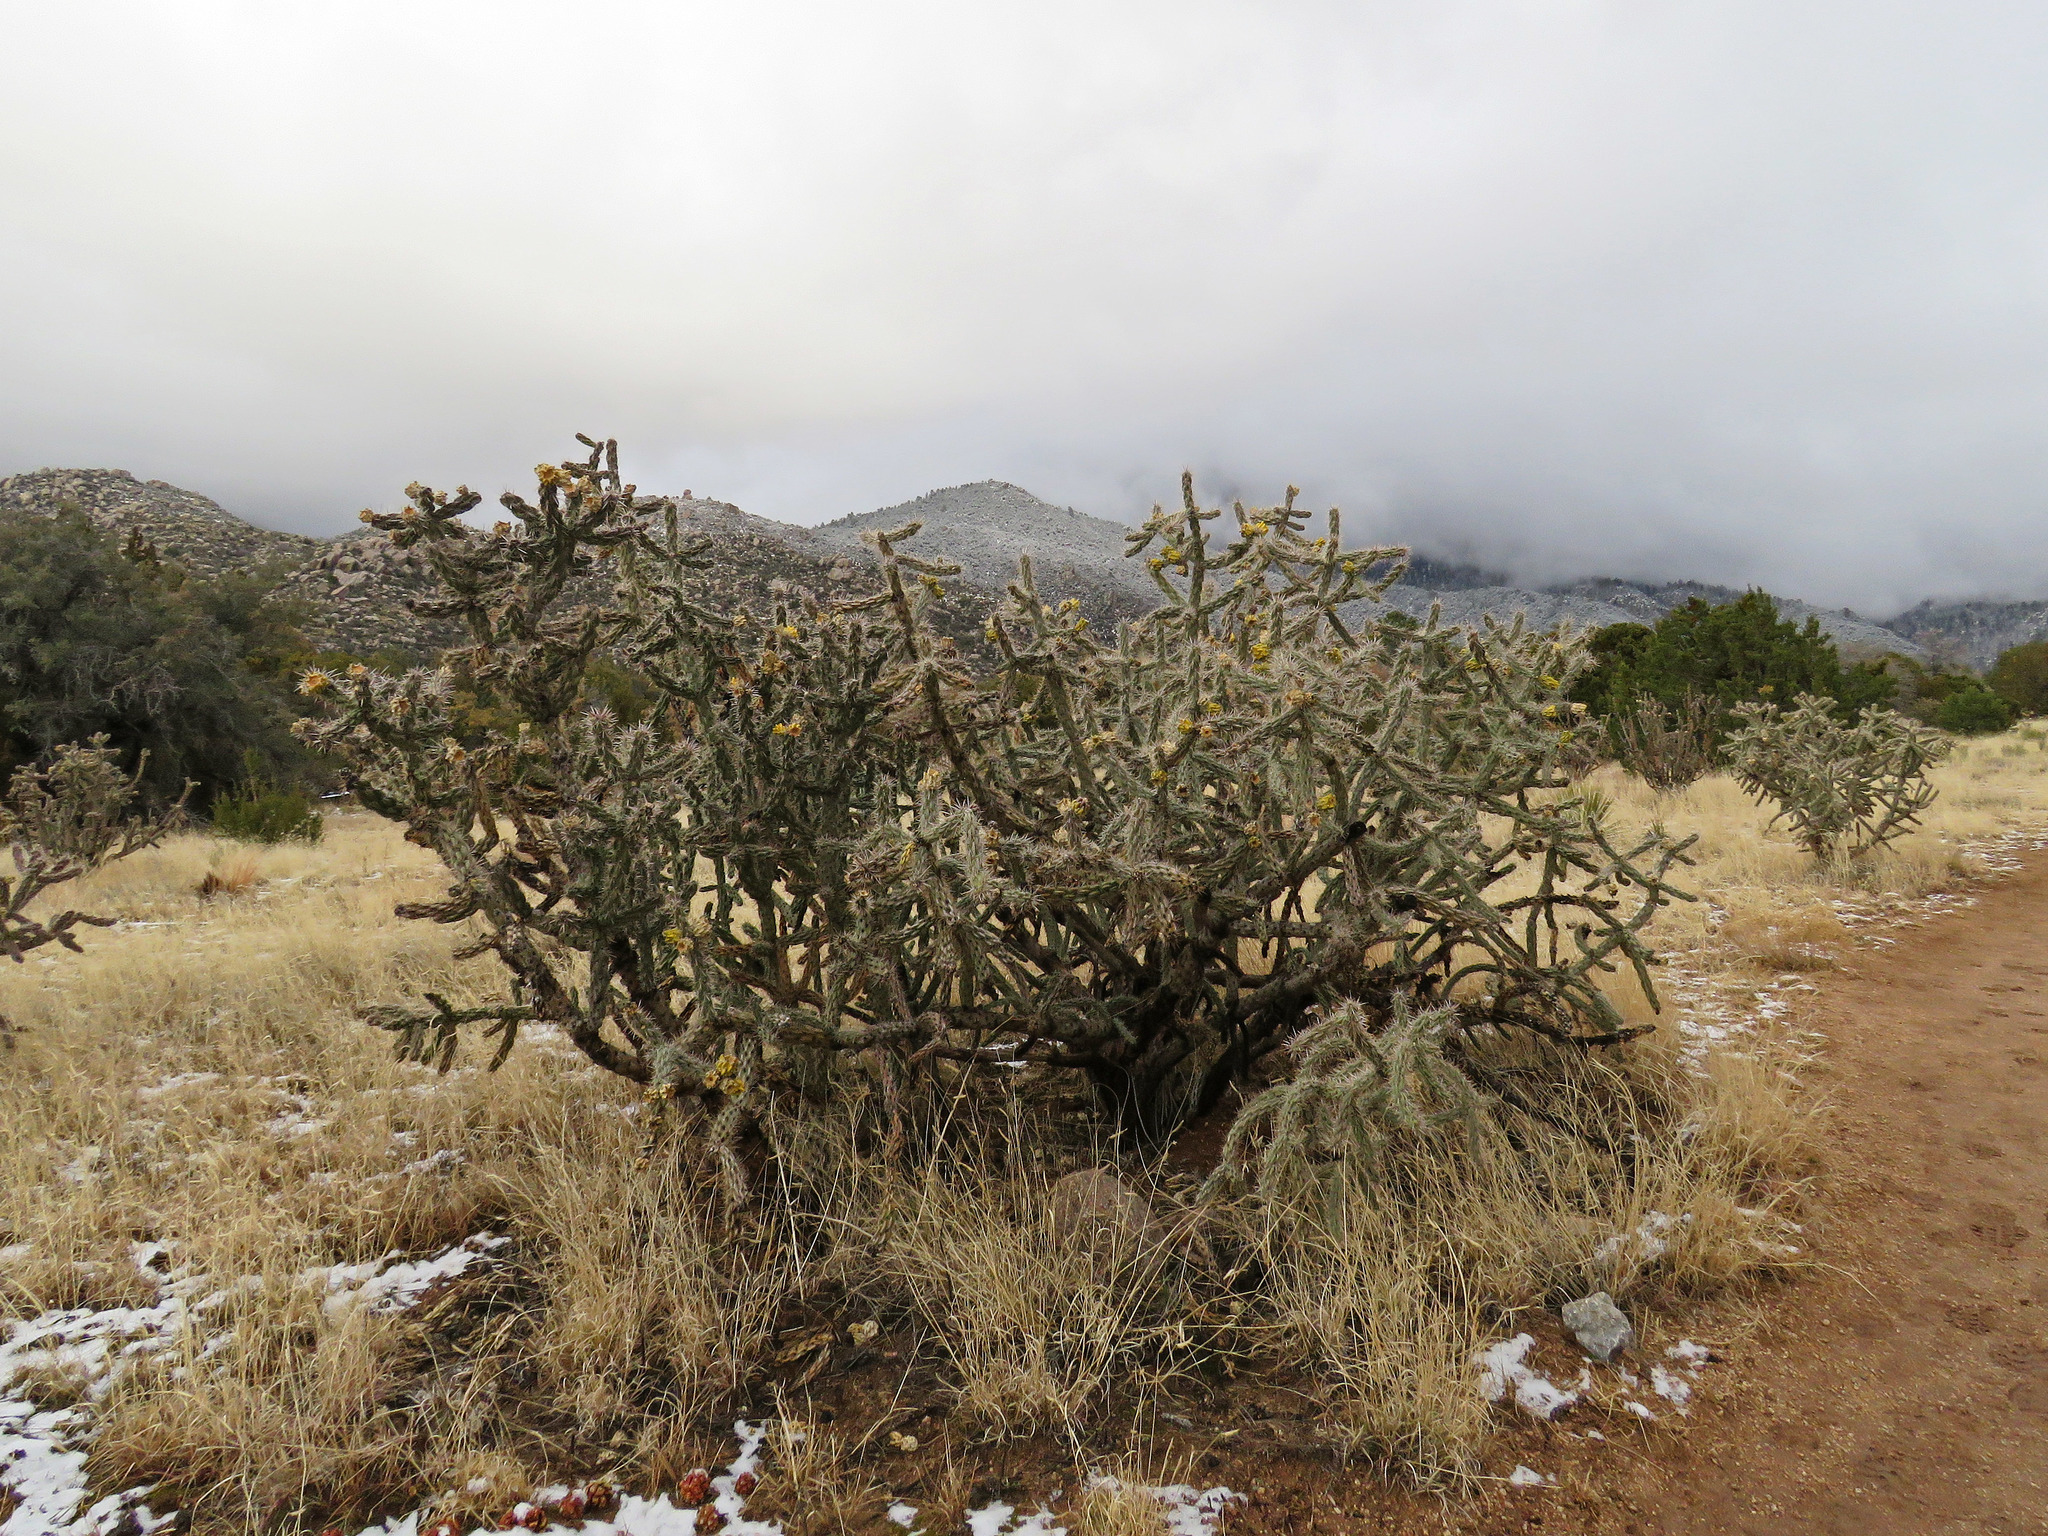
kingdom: Plantae
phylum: Tracheophyta
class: Magnoliopsida
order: Caryophyllales
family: Cactaceae
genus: Cylindropuntia
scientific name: Cylindropuntia imbricata
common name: Candelabrum cactus
